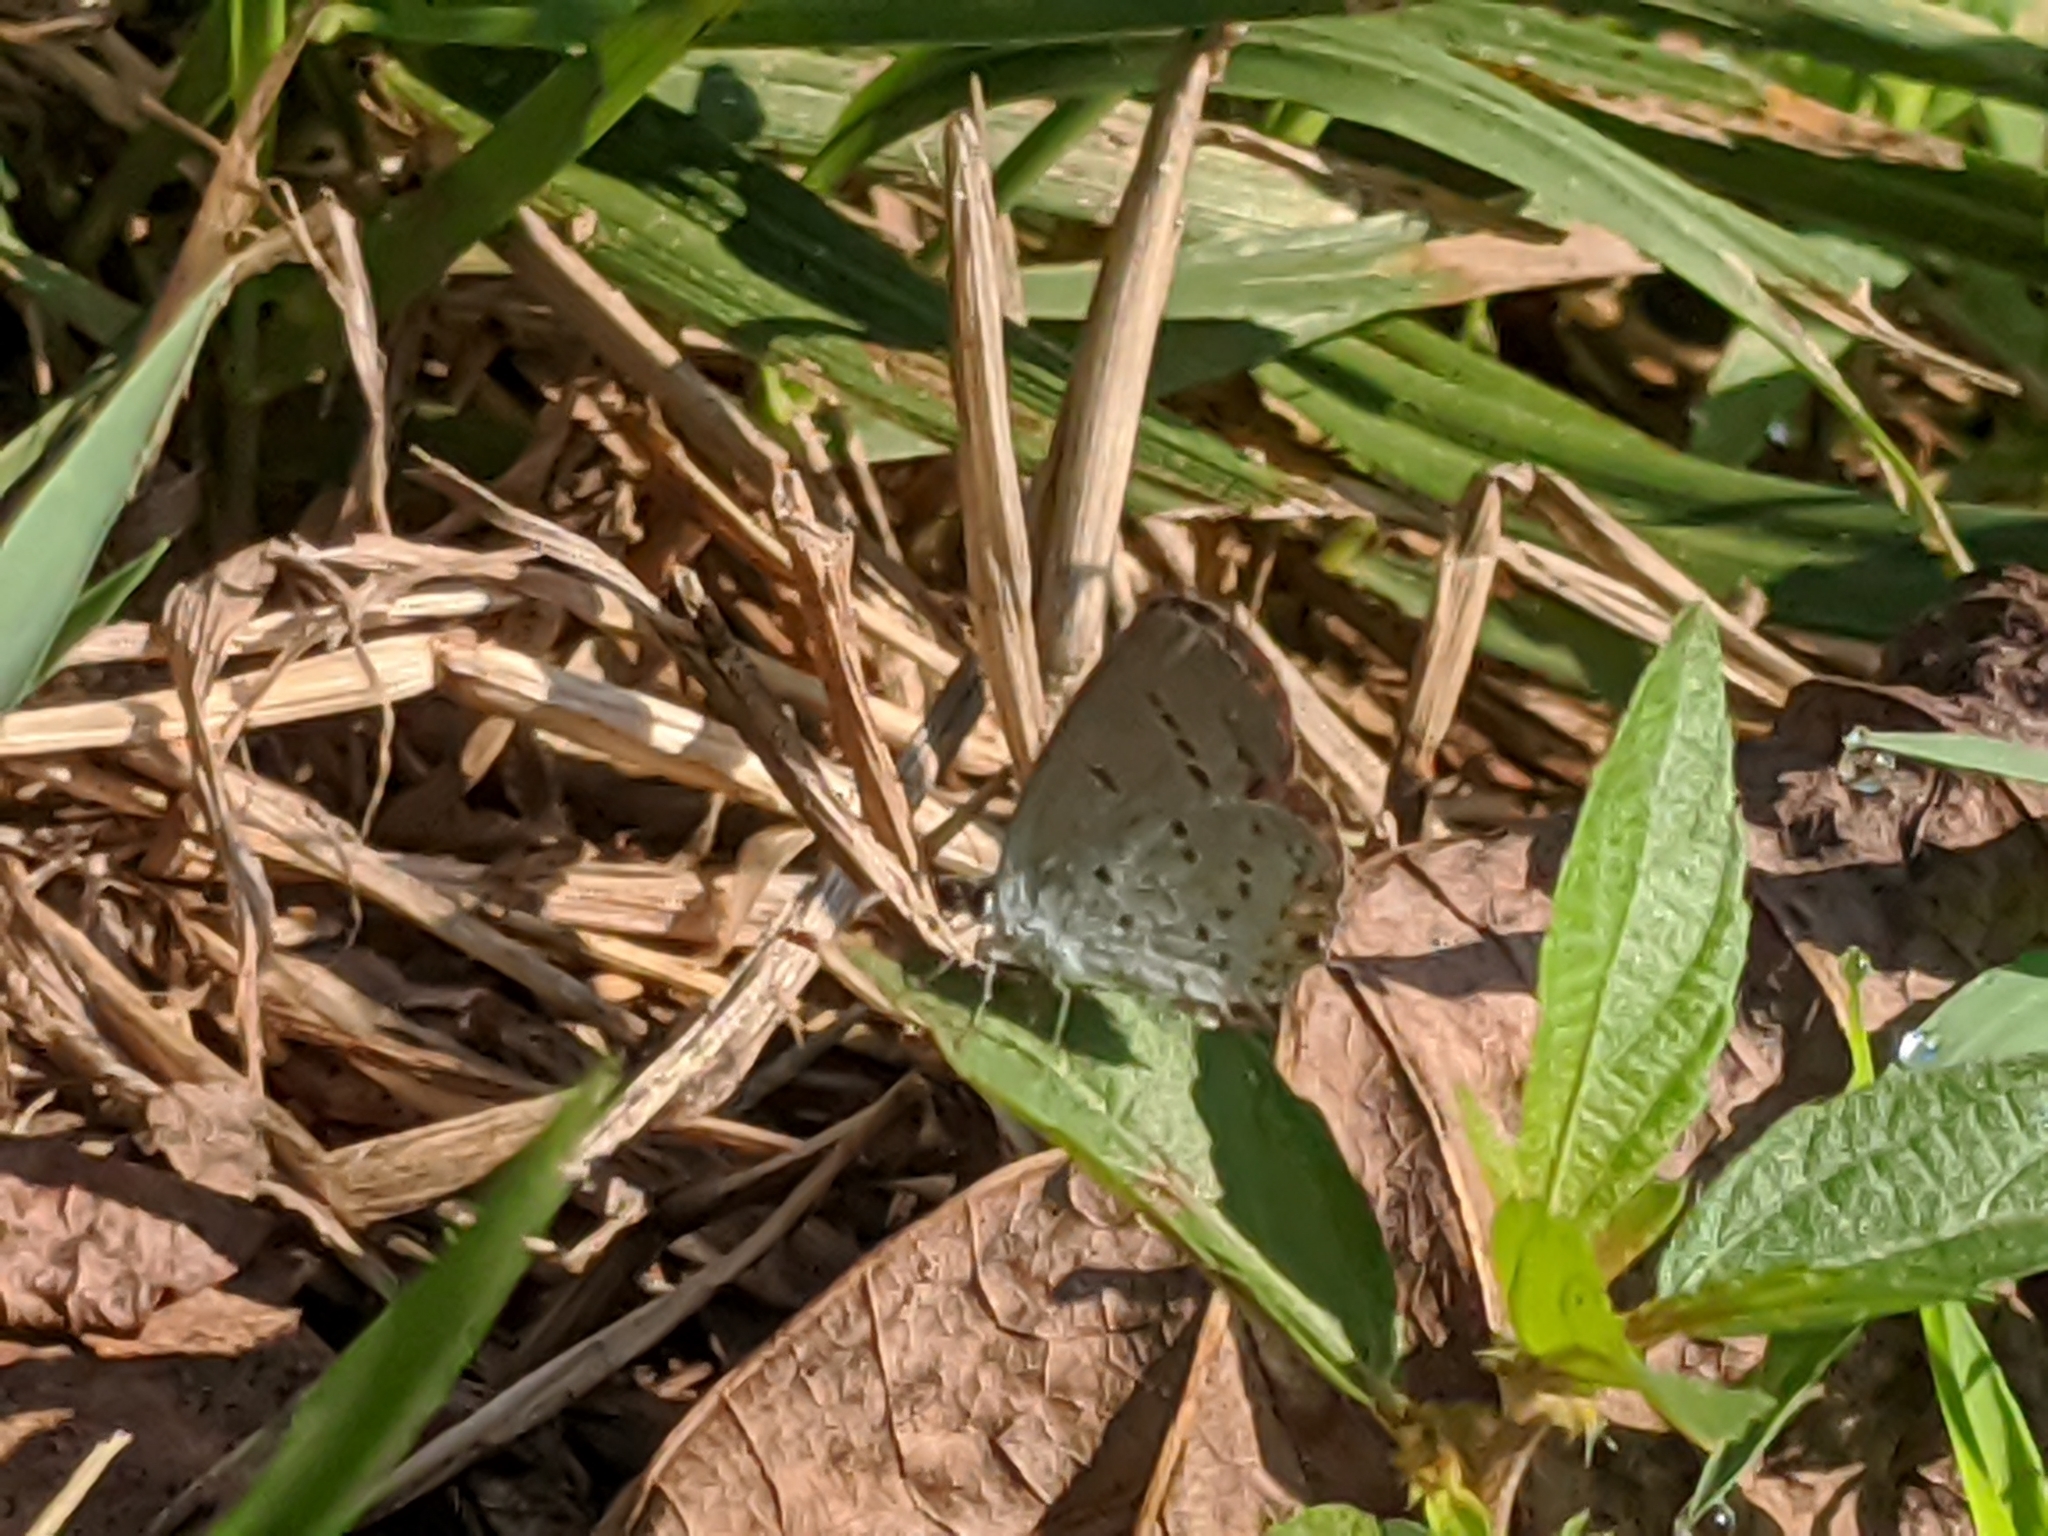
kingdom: Animalia
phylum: Arthropoda
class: Insecta
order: Lepidoptera
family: Lycaenidae
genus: Elkalyce
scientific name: Elkalyce comyntas
